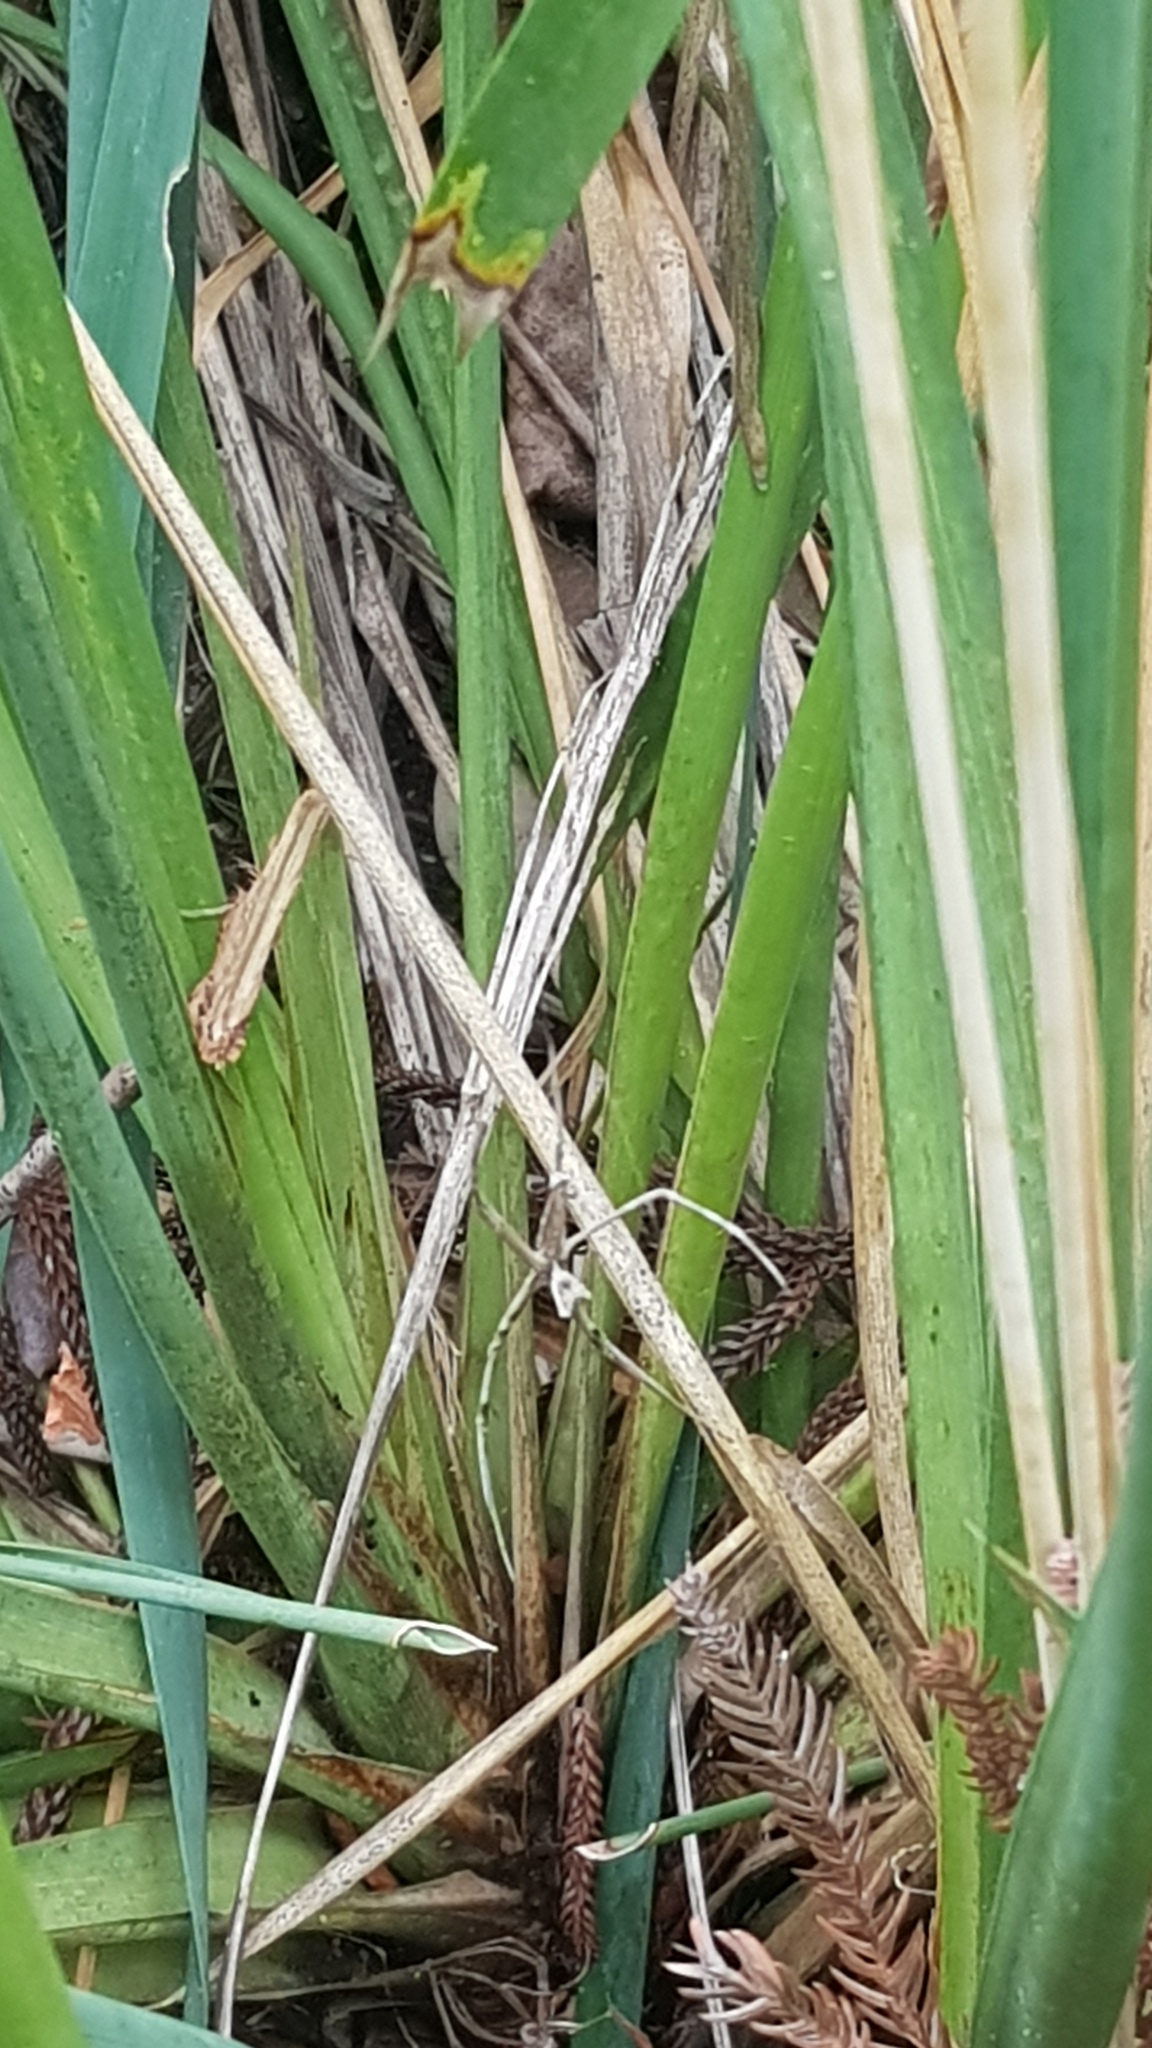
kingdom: Animalia
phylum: Arthropoda
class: Arachnida
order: Araneae
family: Deinopidae
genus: Deinopis
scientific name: Deinopis subrufa
